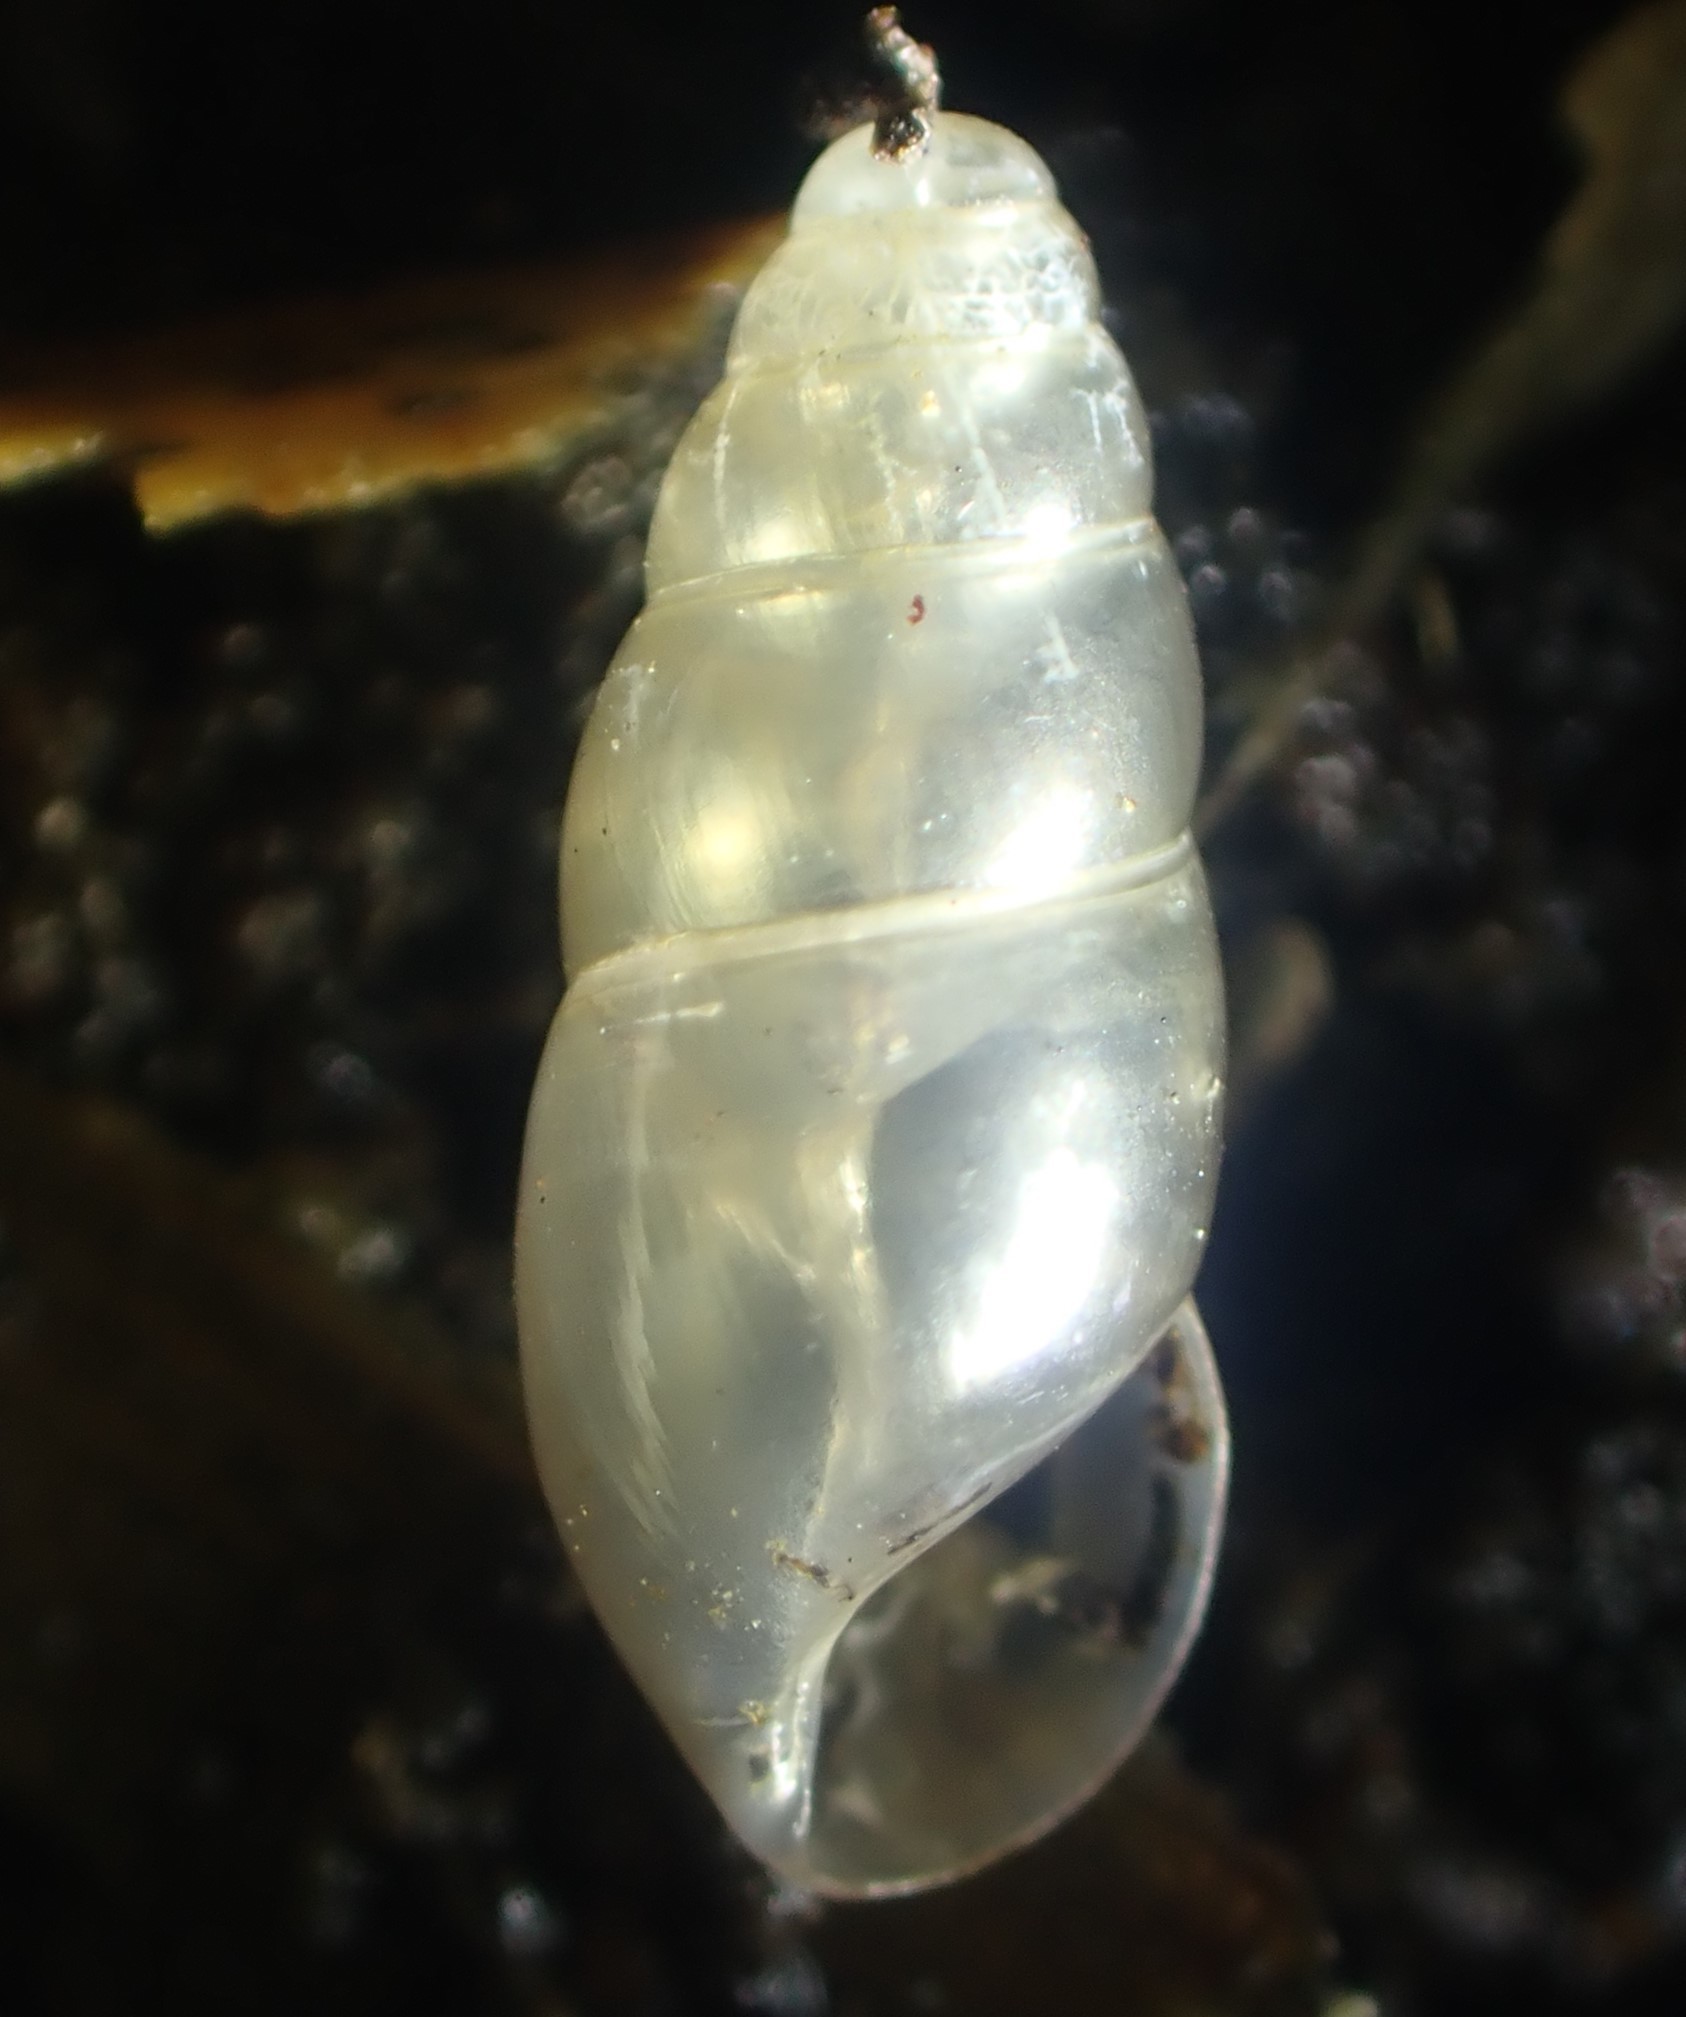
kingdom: Animalia
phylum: Mollusca
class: Gastropoda
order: Stylommatophora
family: Cochlicopidae
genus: Cochlicopa
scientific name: Cochlicopa lubrica
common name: Glossy pillar snail
